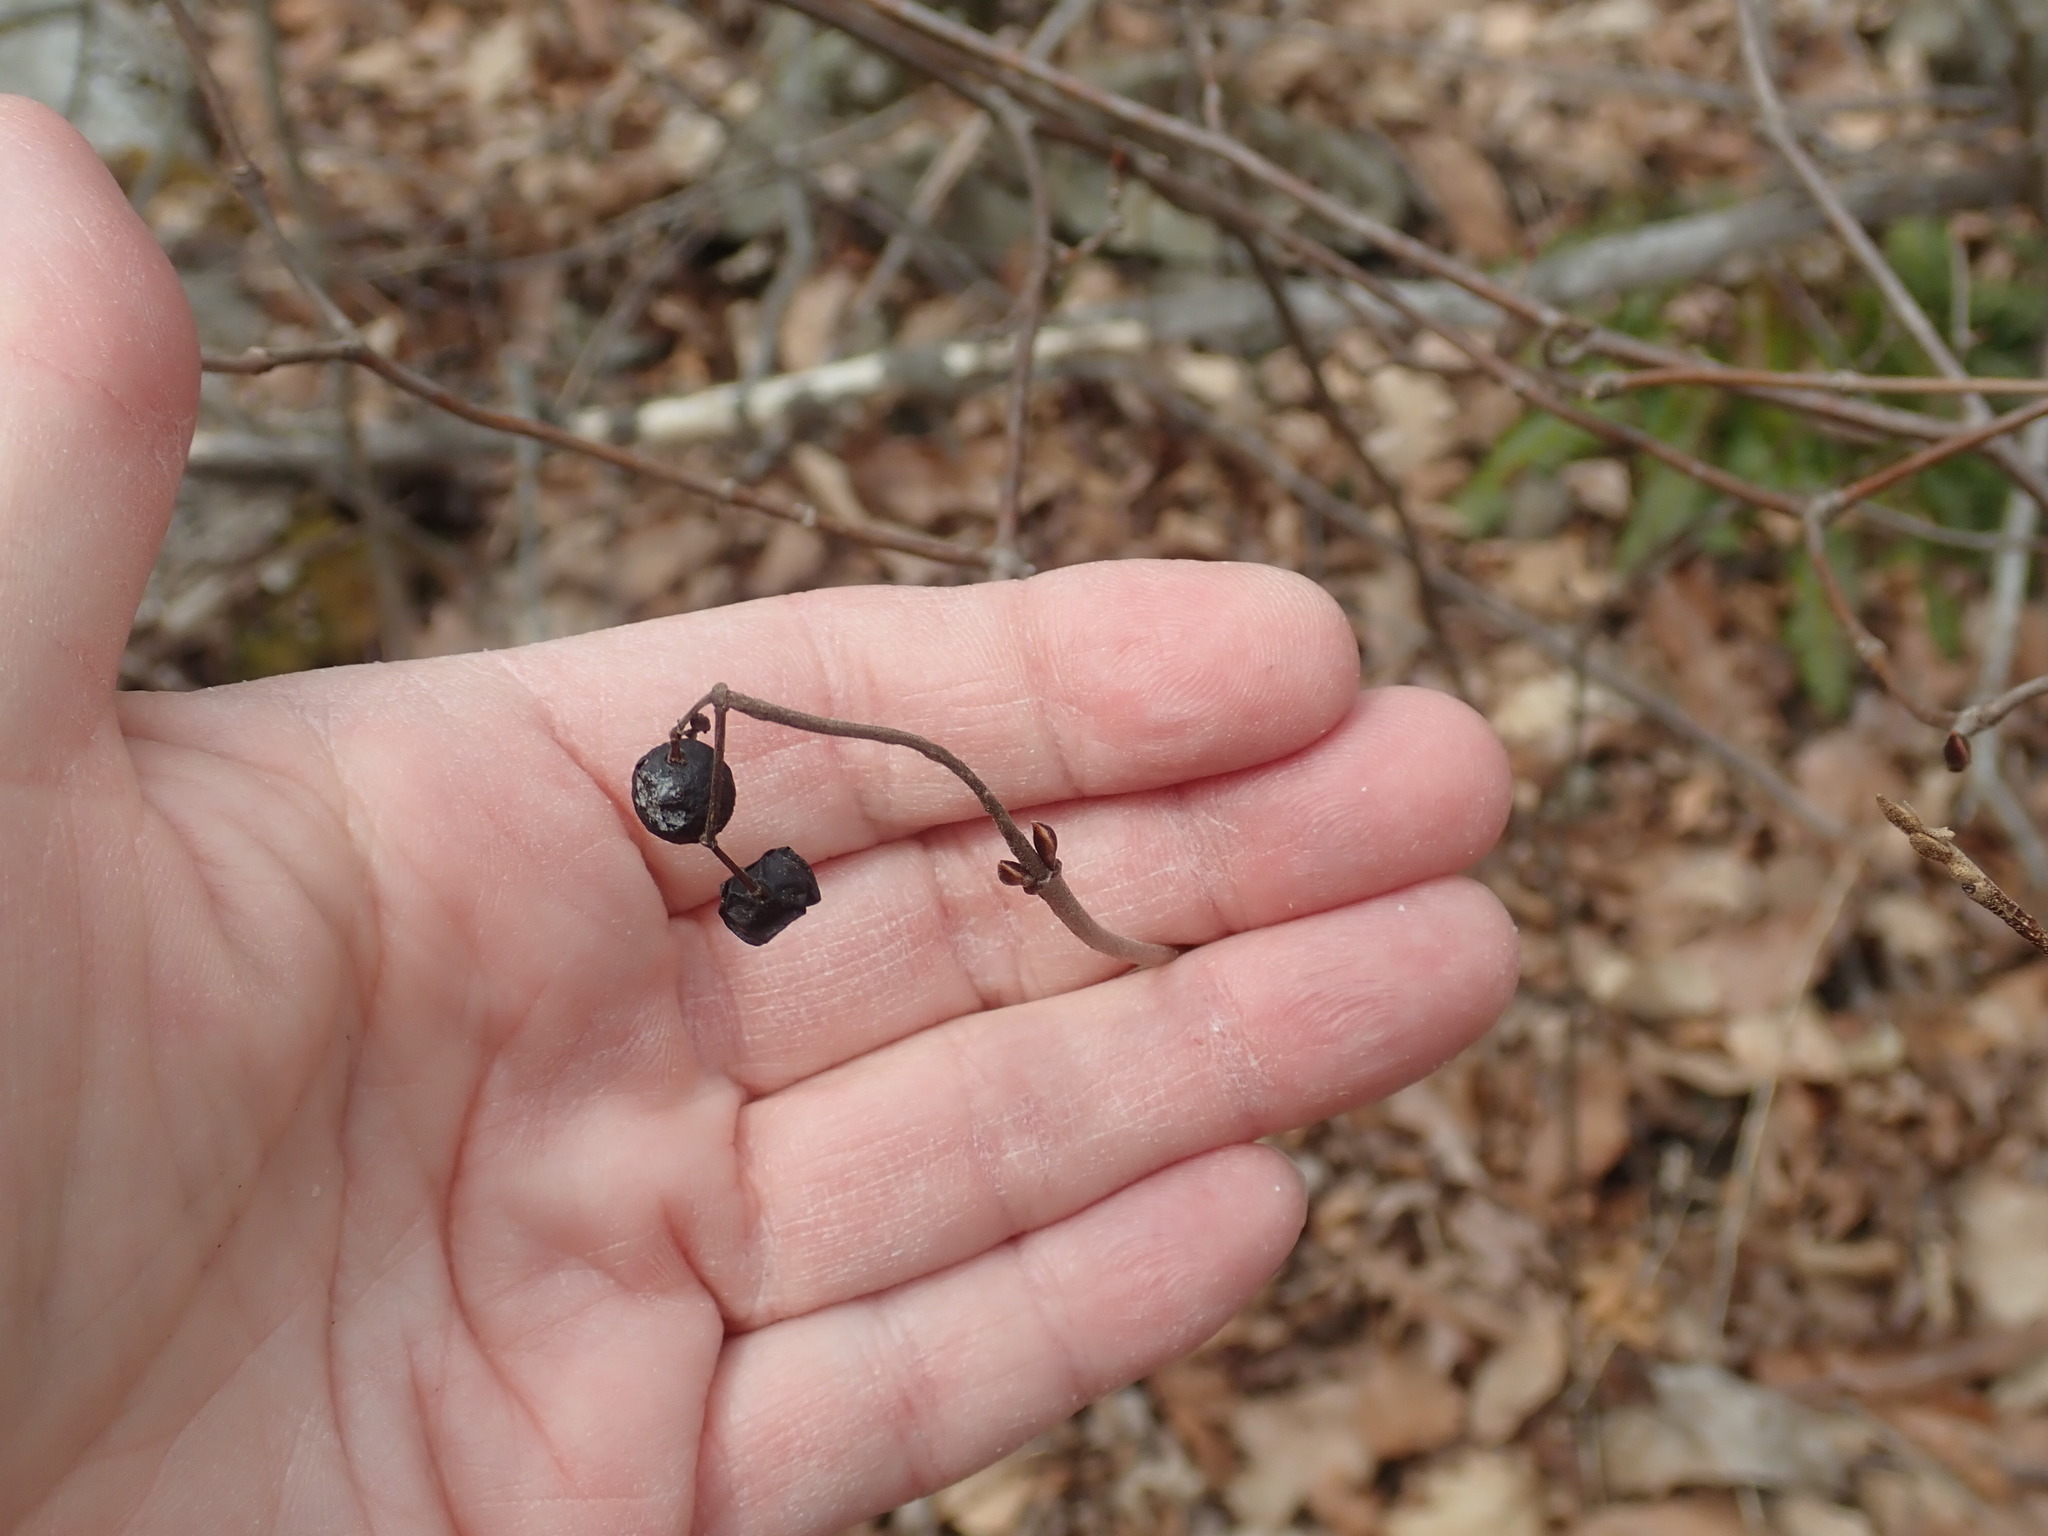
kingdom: Plantae
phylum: Tracheophyta
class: Magnoliopsida
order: Dipsacales
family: Viburnaceae
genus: Viburnum
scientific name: Viburnum acerifolium
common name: Dockmackie
